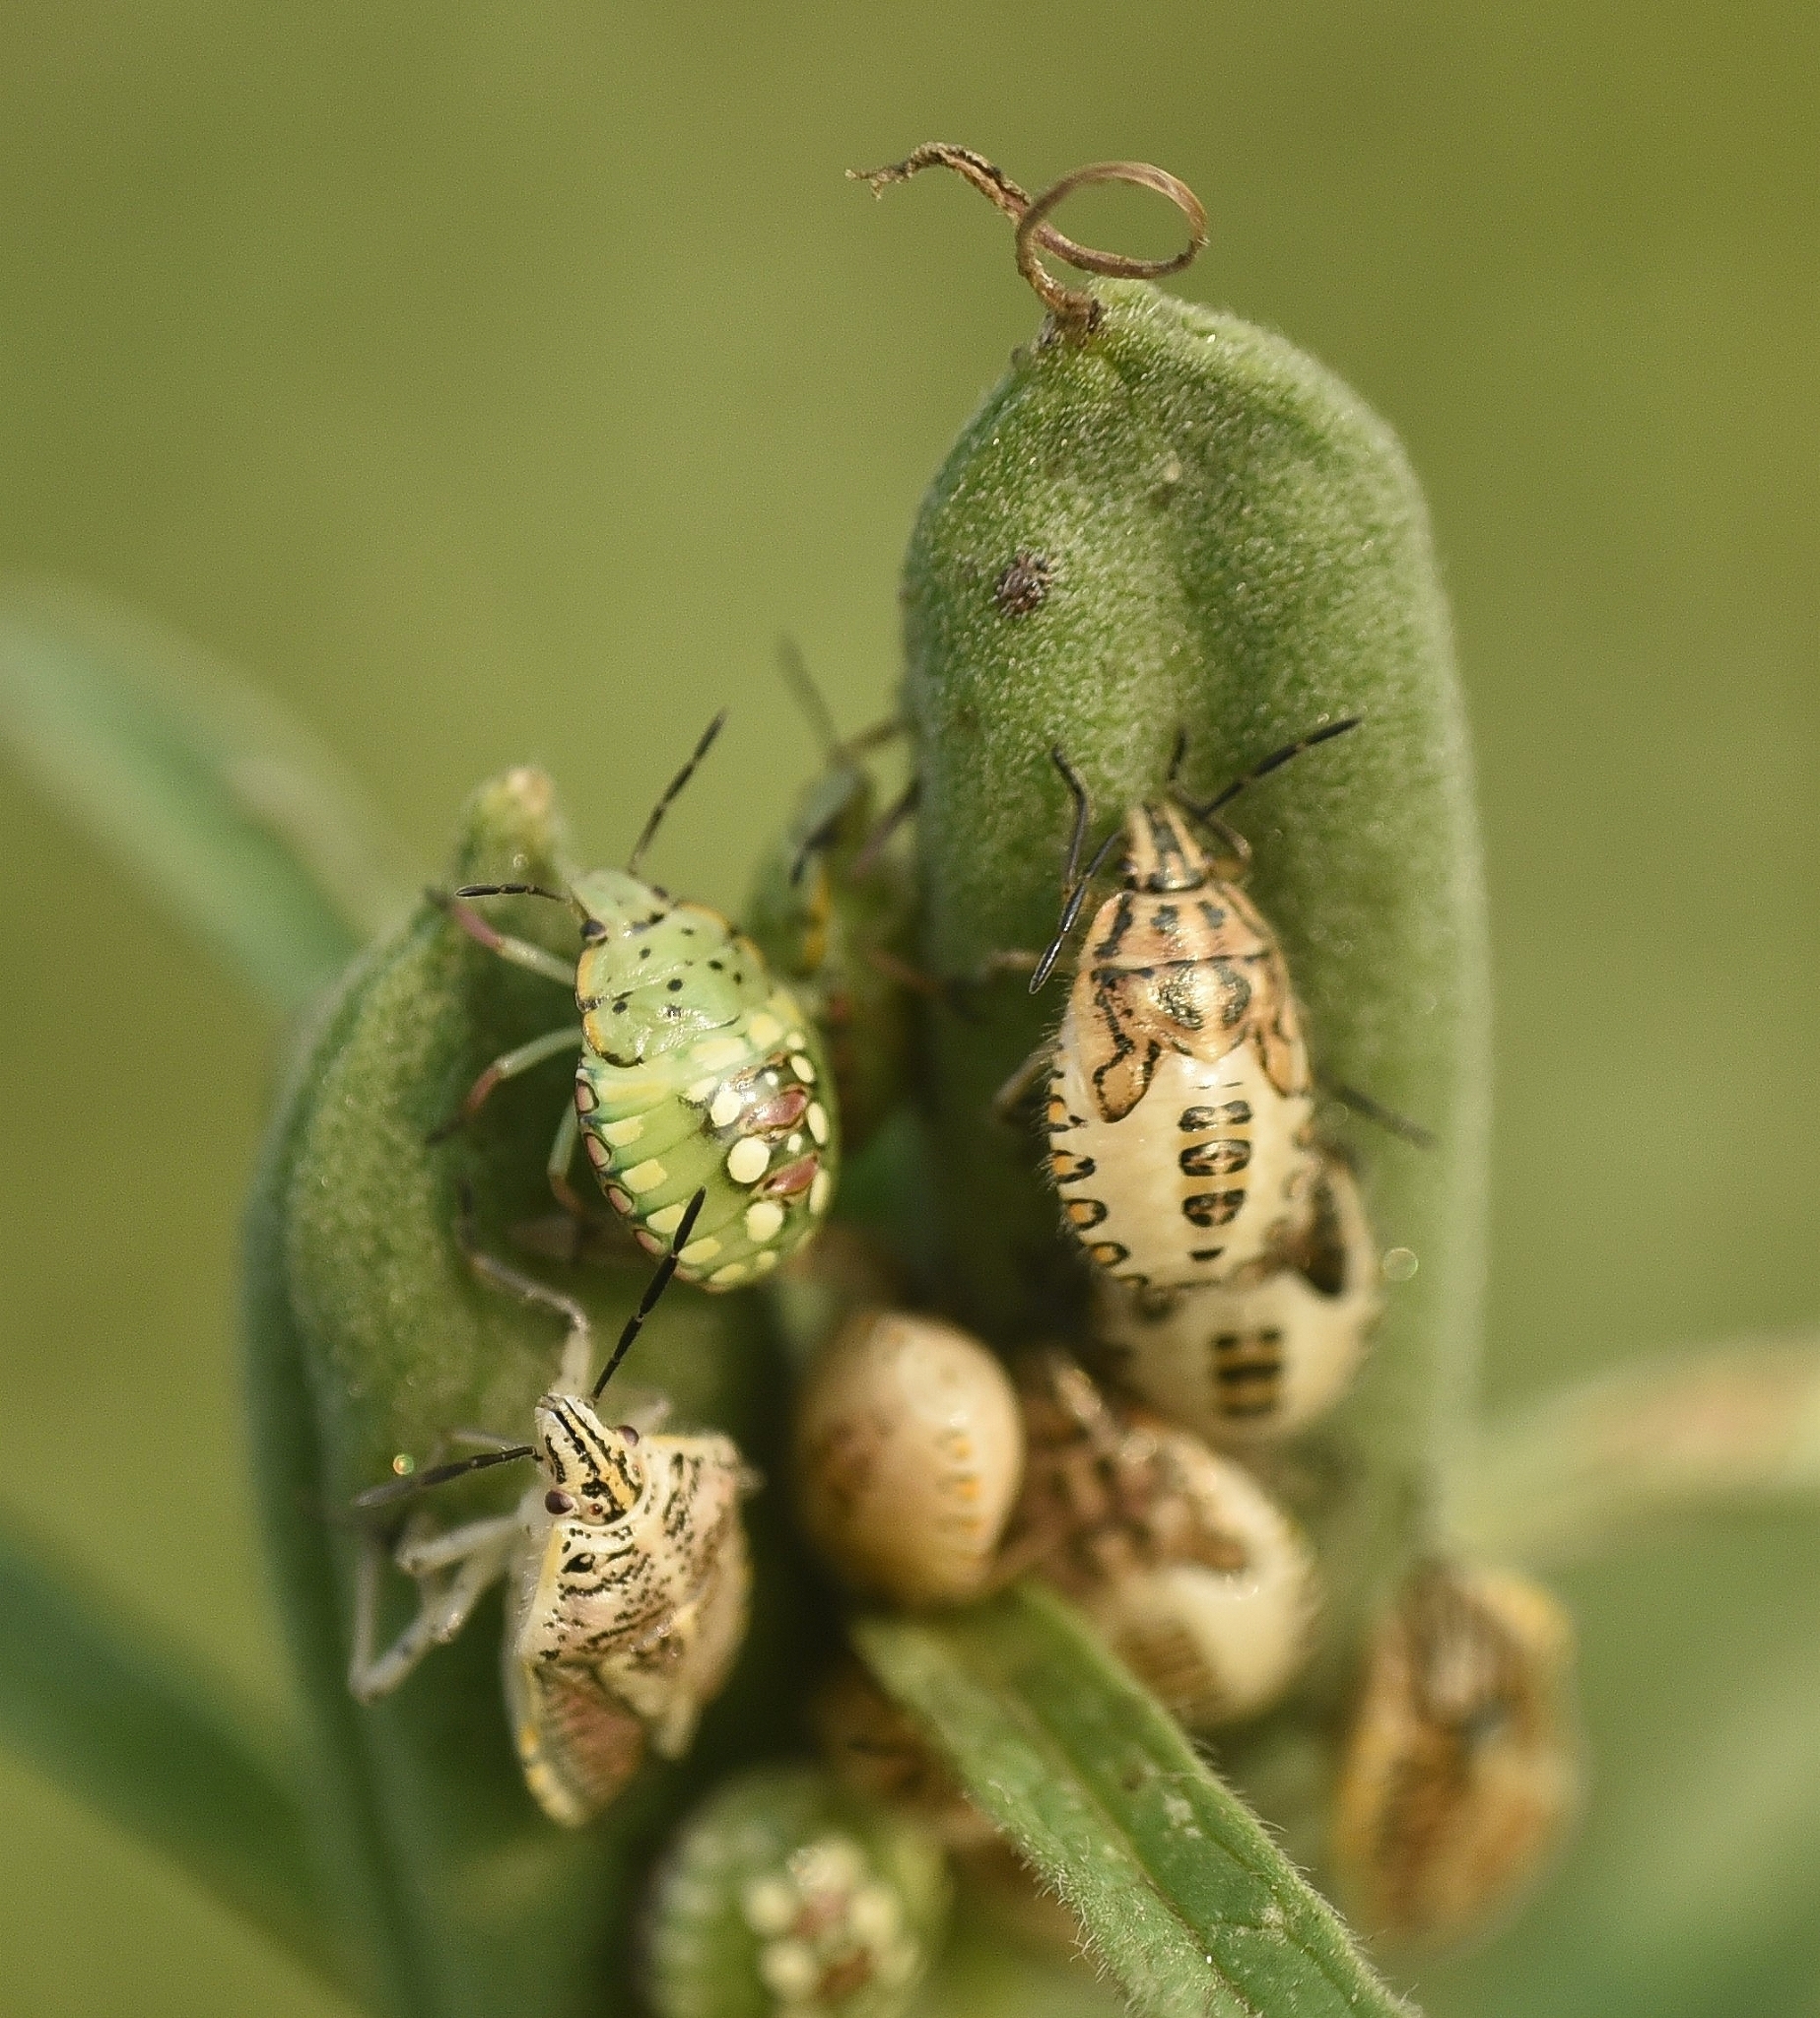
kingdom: Animalia
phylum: Arthropoda
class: Insecta
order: Hemiptera
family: Pentatomidae
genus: Nezara
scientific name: Nezara viridula
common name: Southern green stink bug
